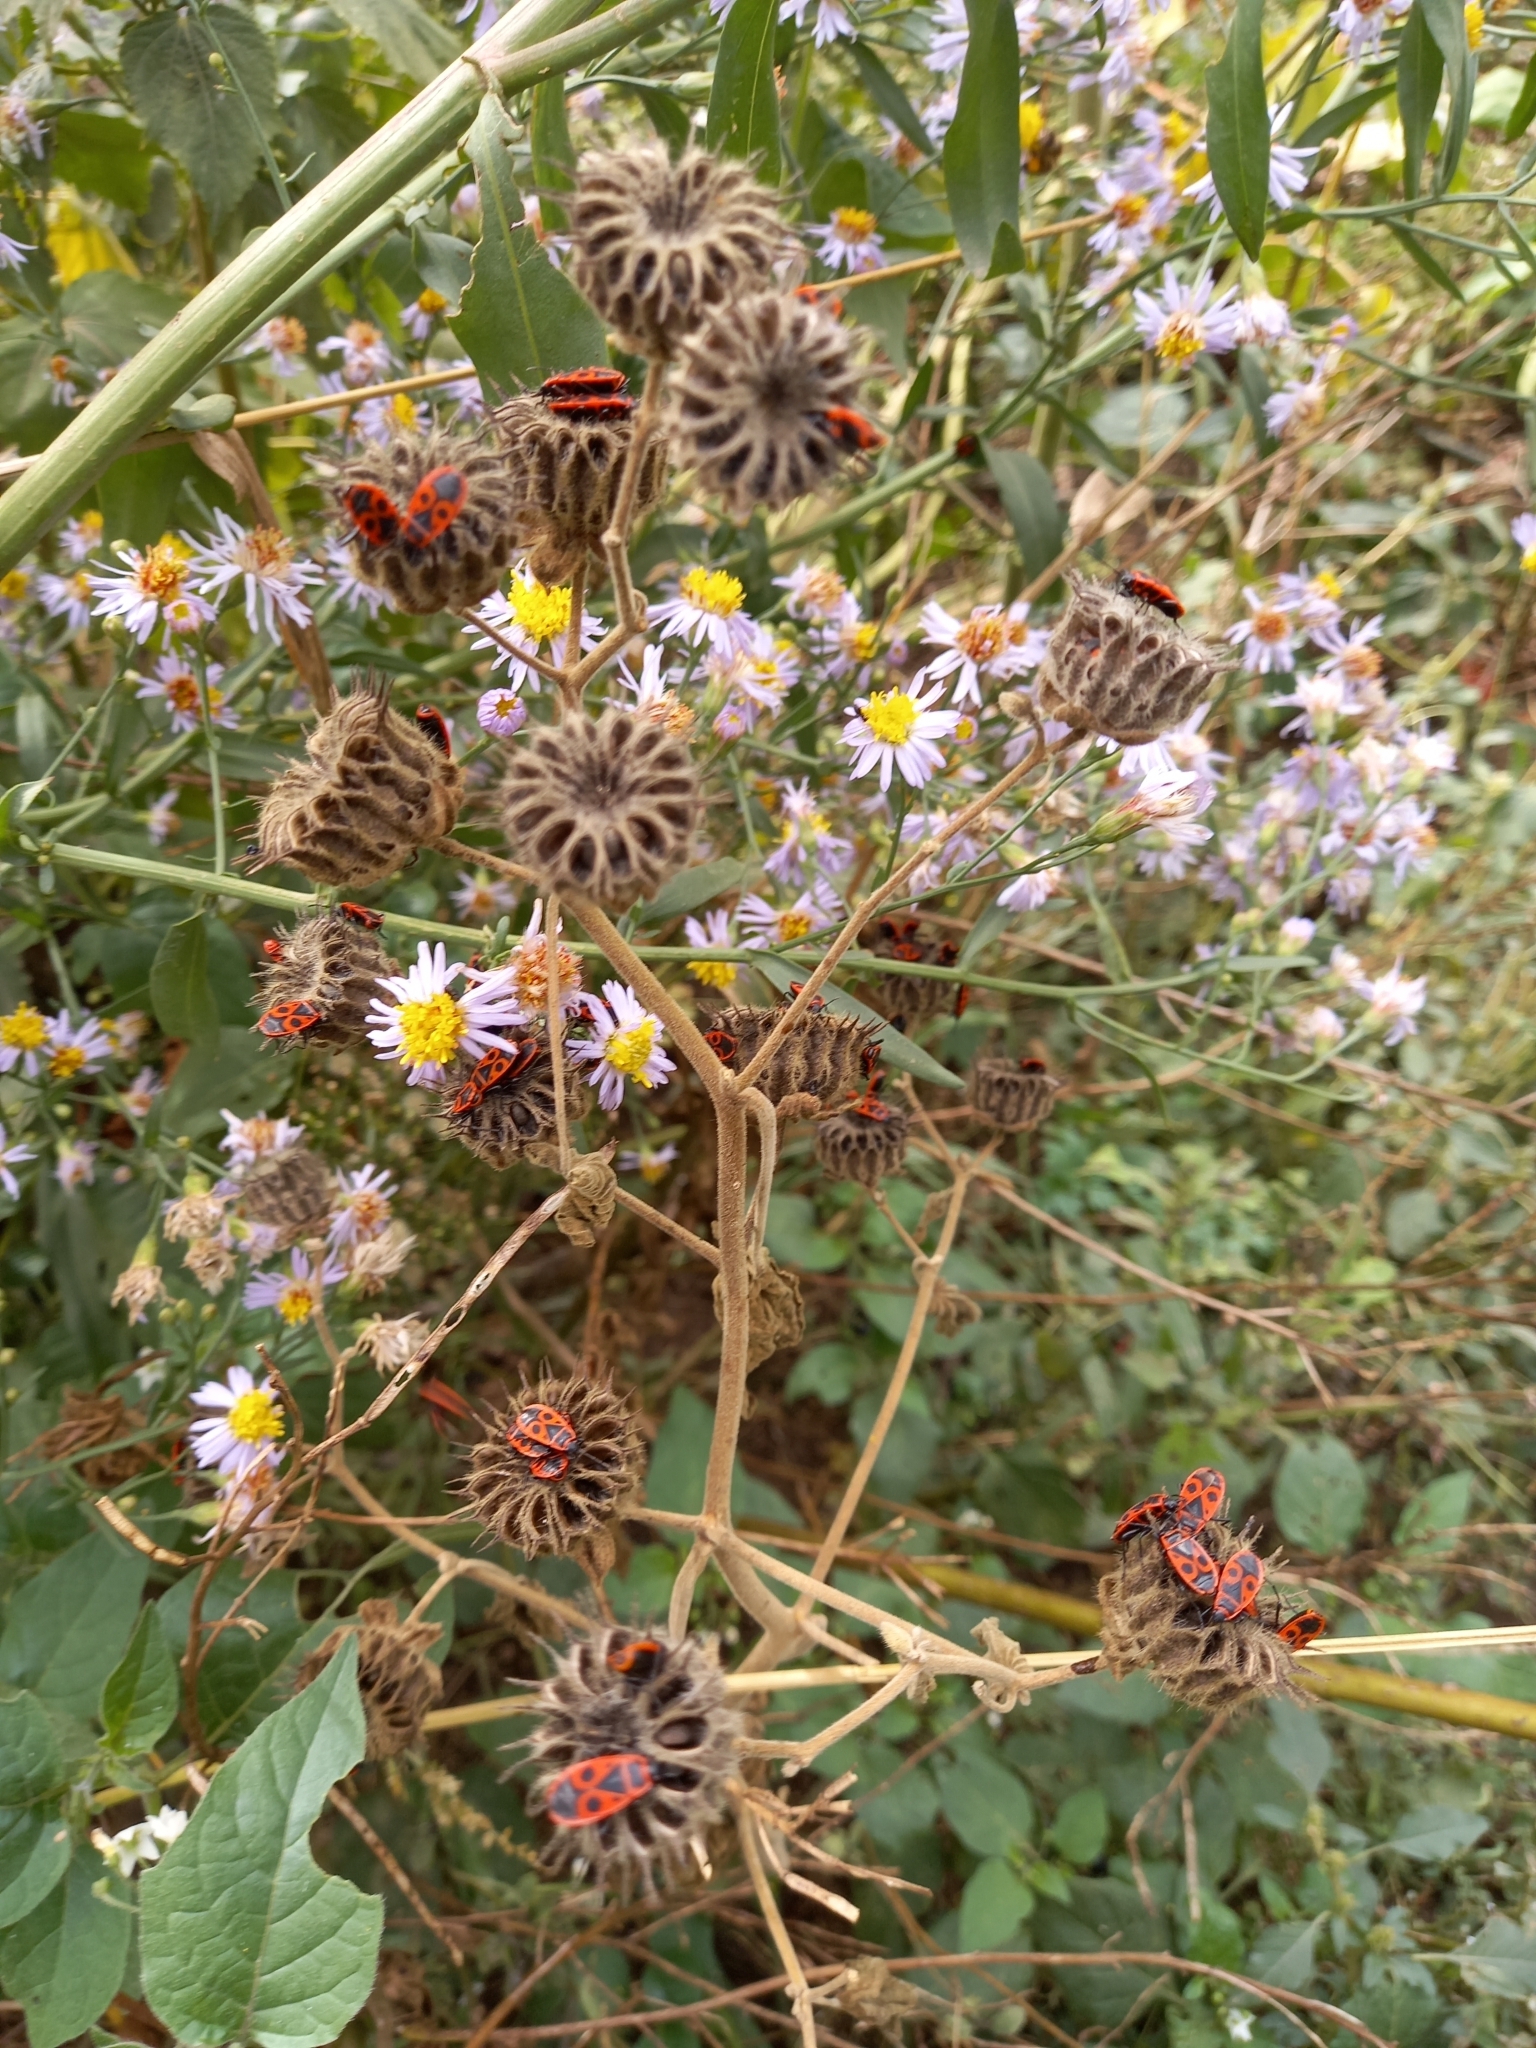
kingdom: Animalia
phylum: Arthropoda
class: Insecta
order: Hemiptera
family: Pyrrhocoridae
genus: Pyrrhocoris
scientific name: Pyrrhocoris apterus
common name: Firebug
